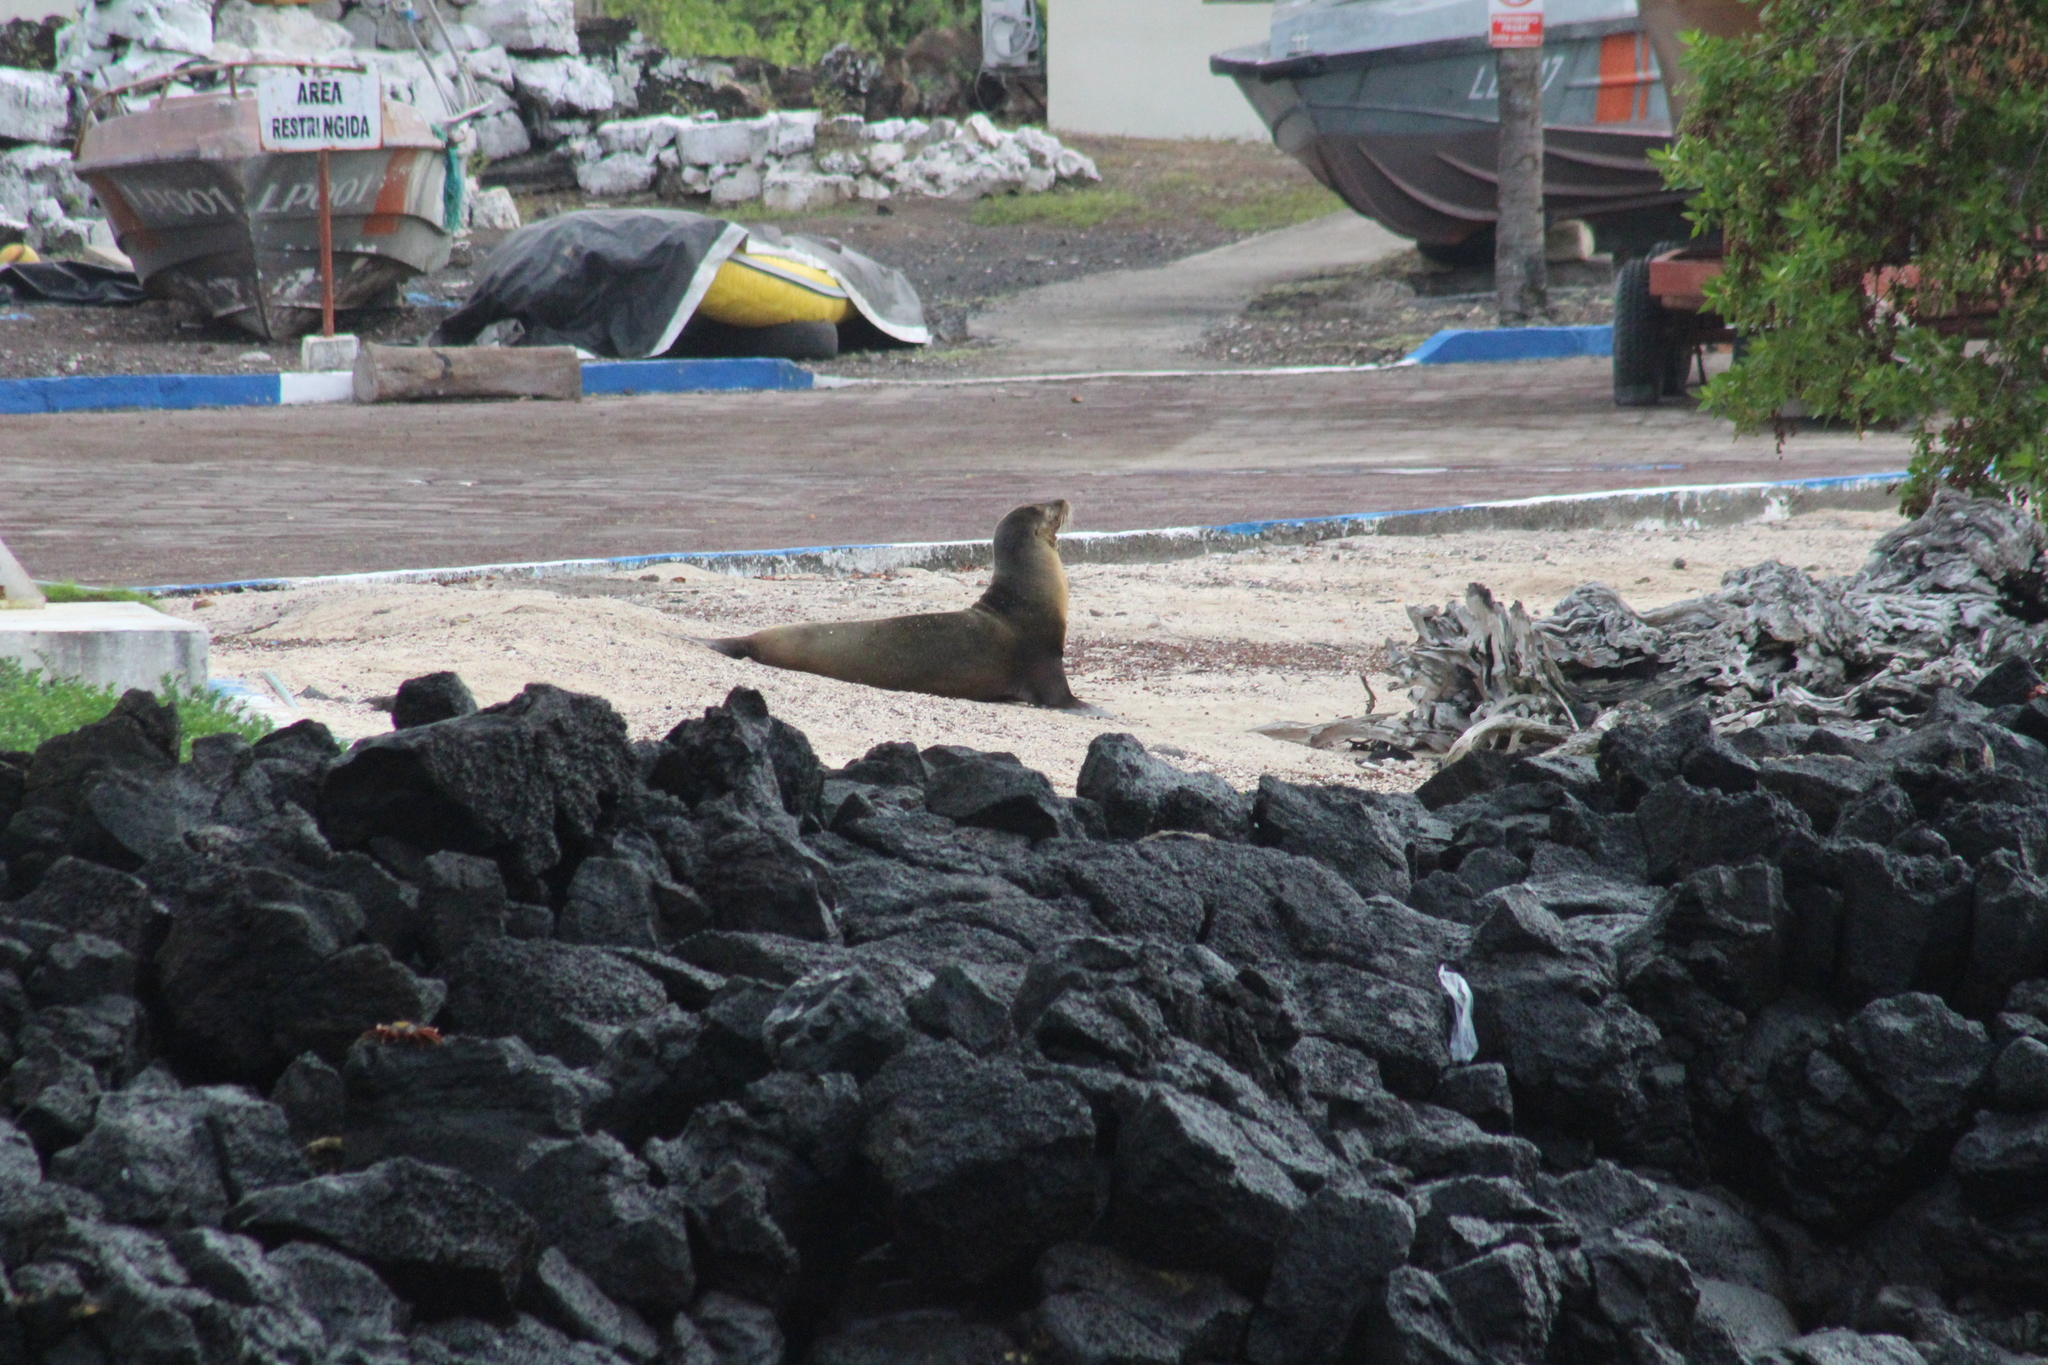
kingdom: Animalia
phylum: Chordata
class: Mammalia
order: Carnivora
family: Otariidae
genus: Zalophus
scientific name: Zalophus wollebaeki
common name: Galapagos sea lion
